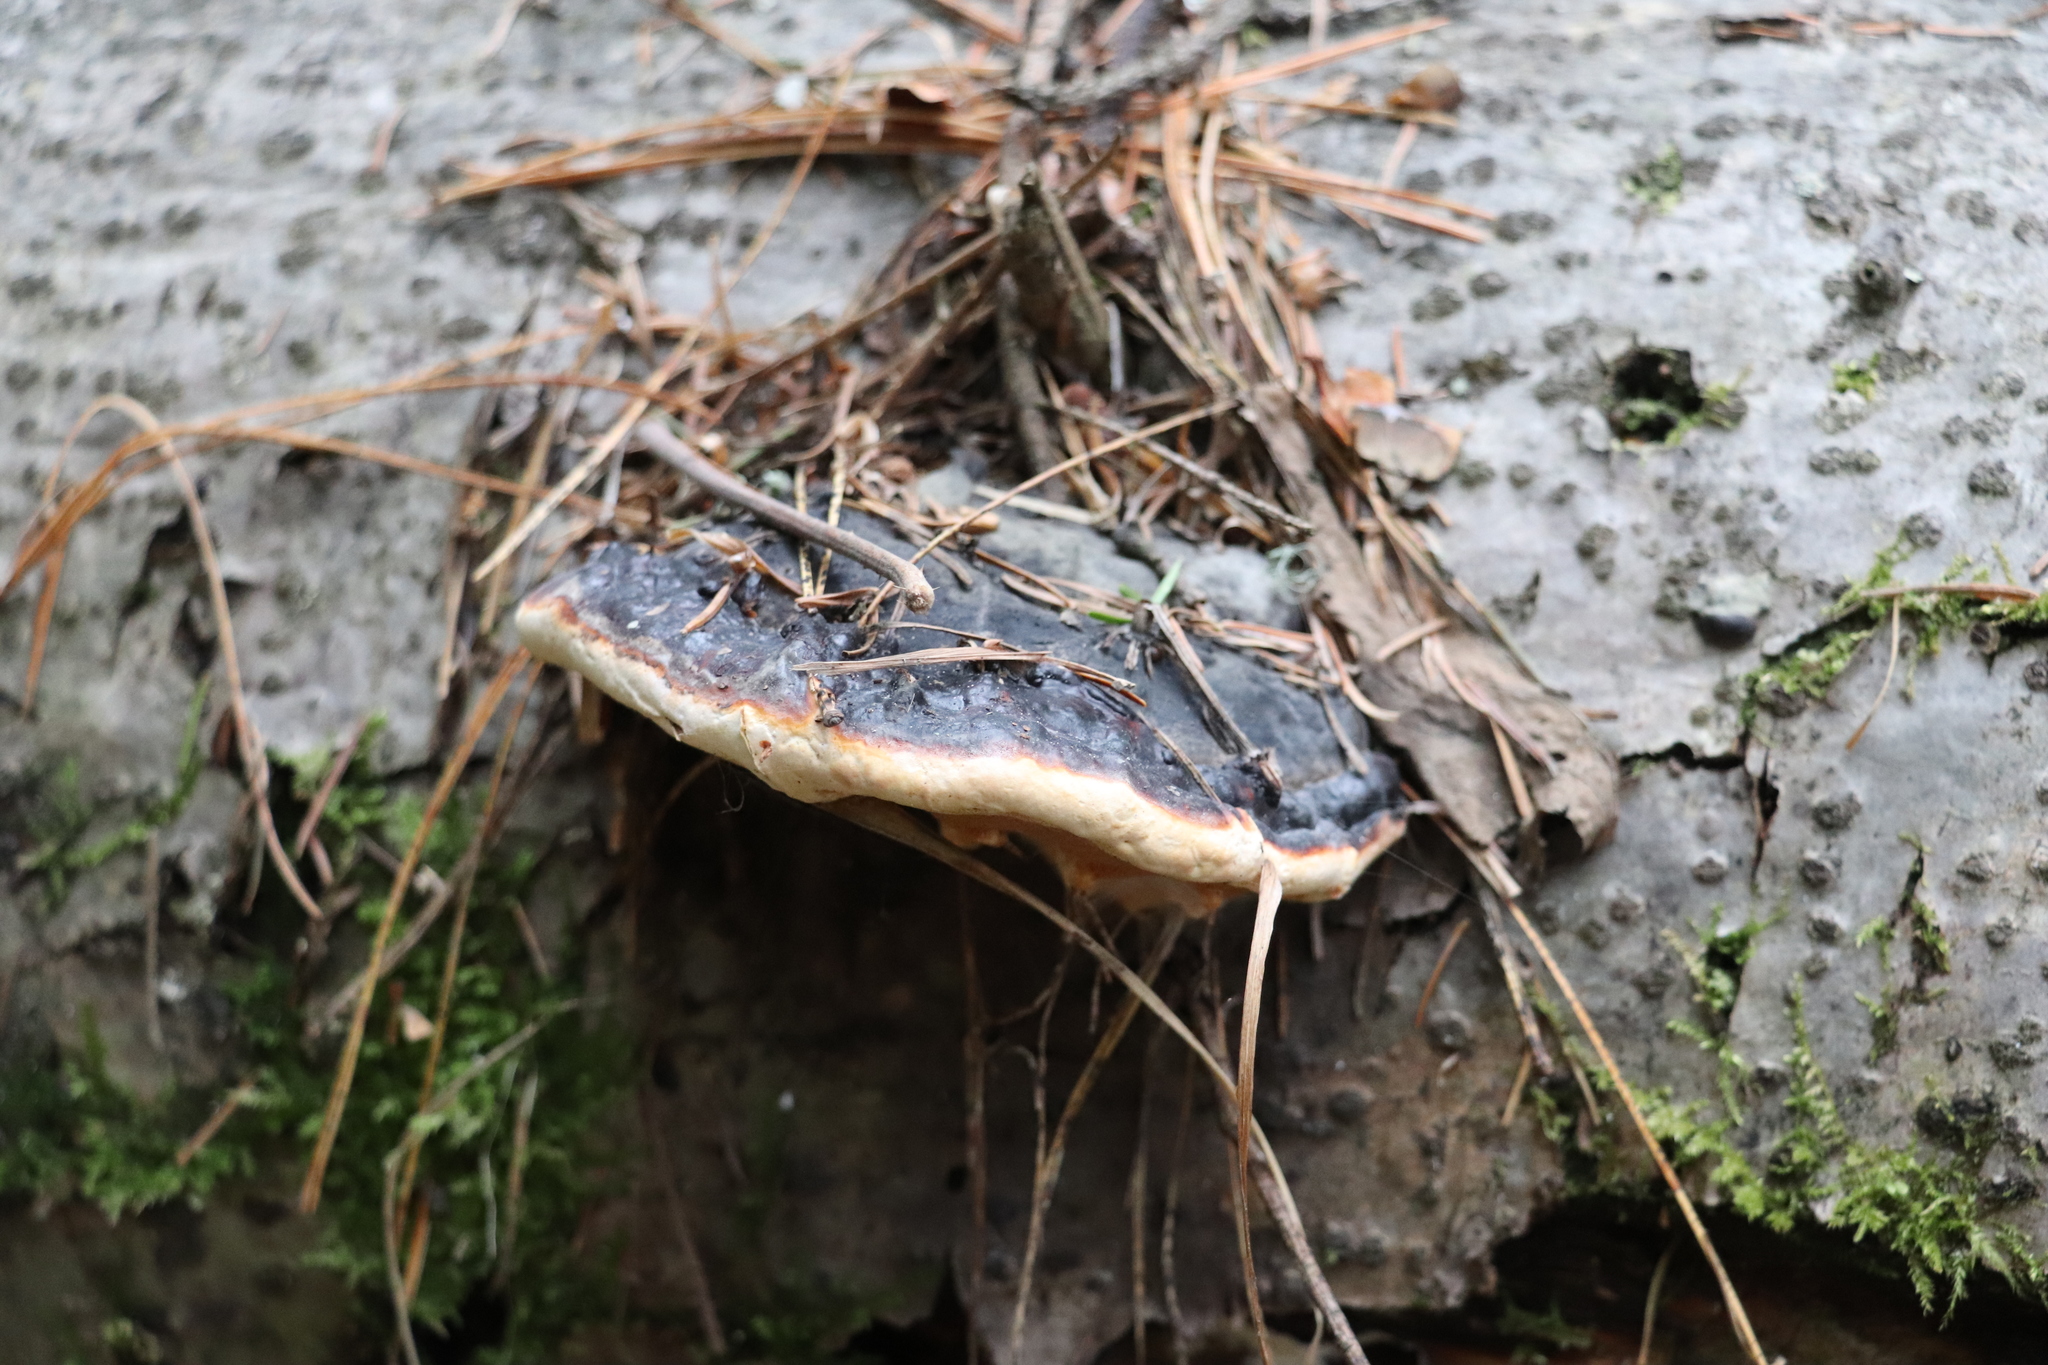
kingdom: Fungi
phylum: Basidiomycota
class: Agaricomycetes
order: Polyporales
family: Fomitopsidaceae
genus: Fomitopsis
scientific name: Fomitopsis pinicola
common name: Red-belted bracket
